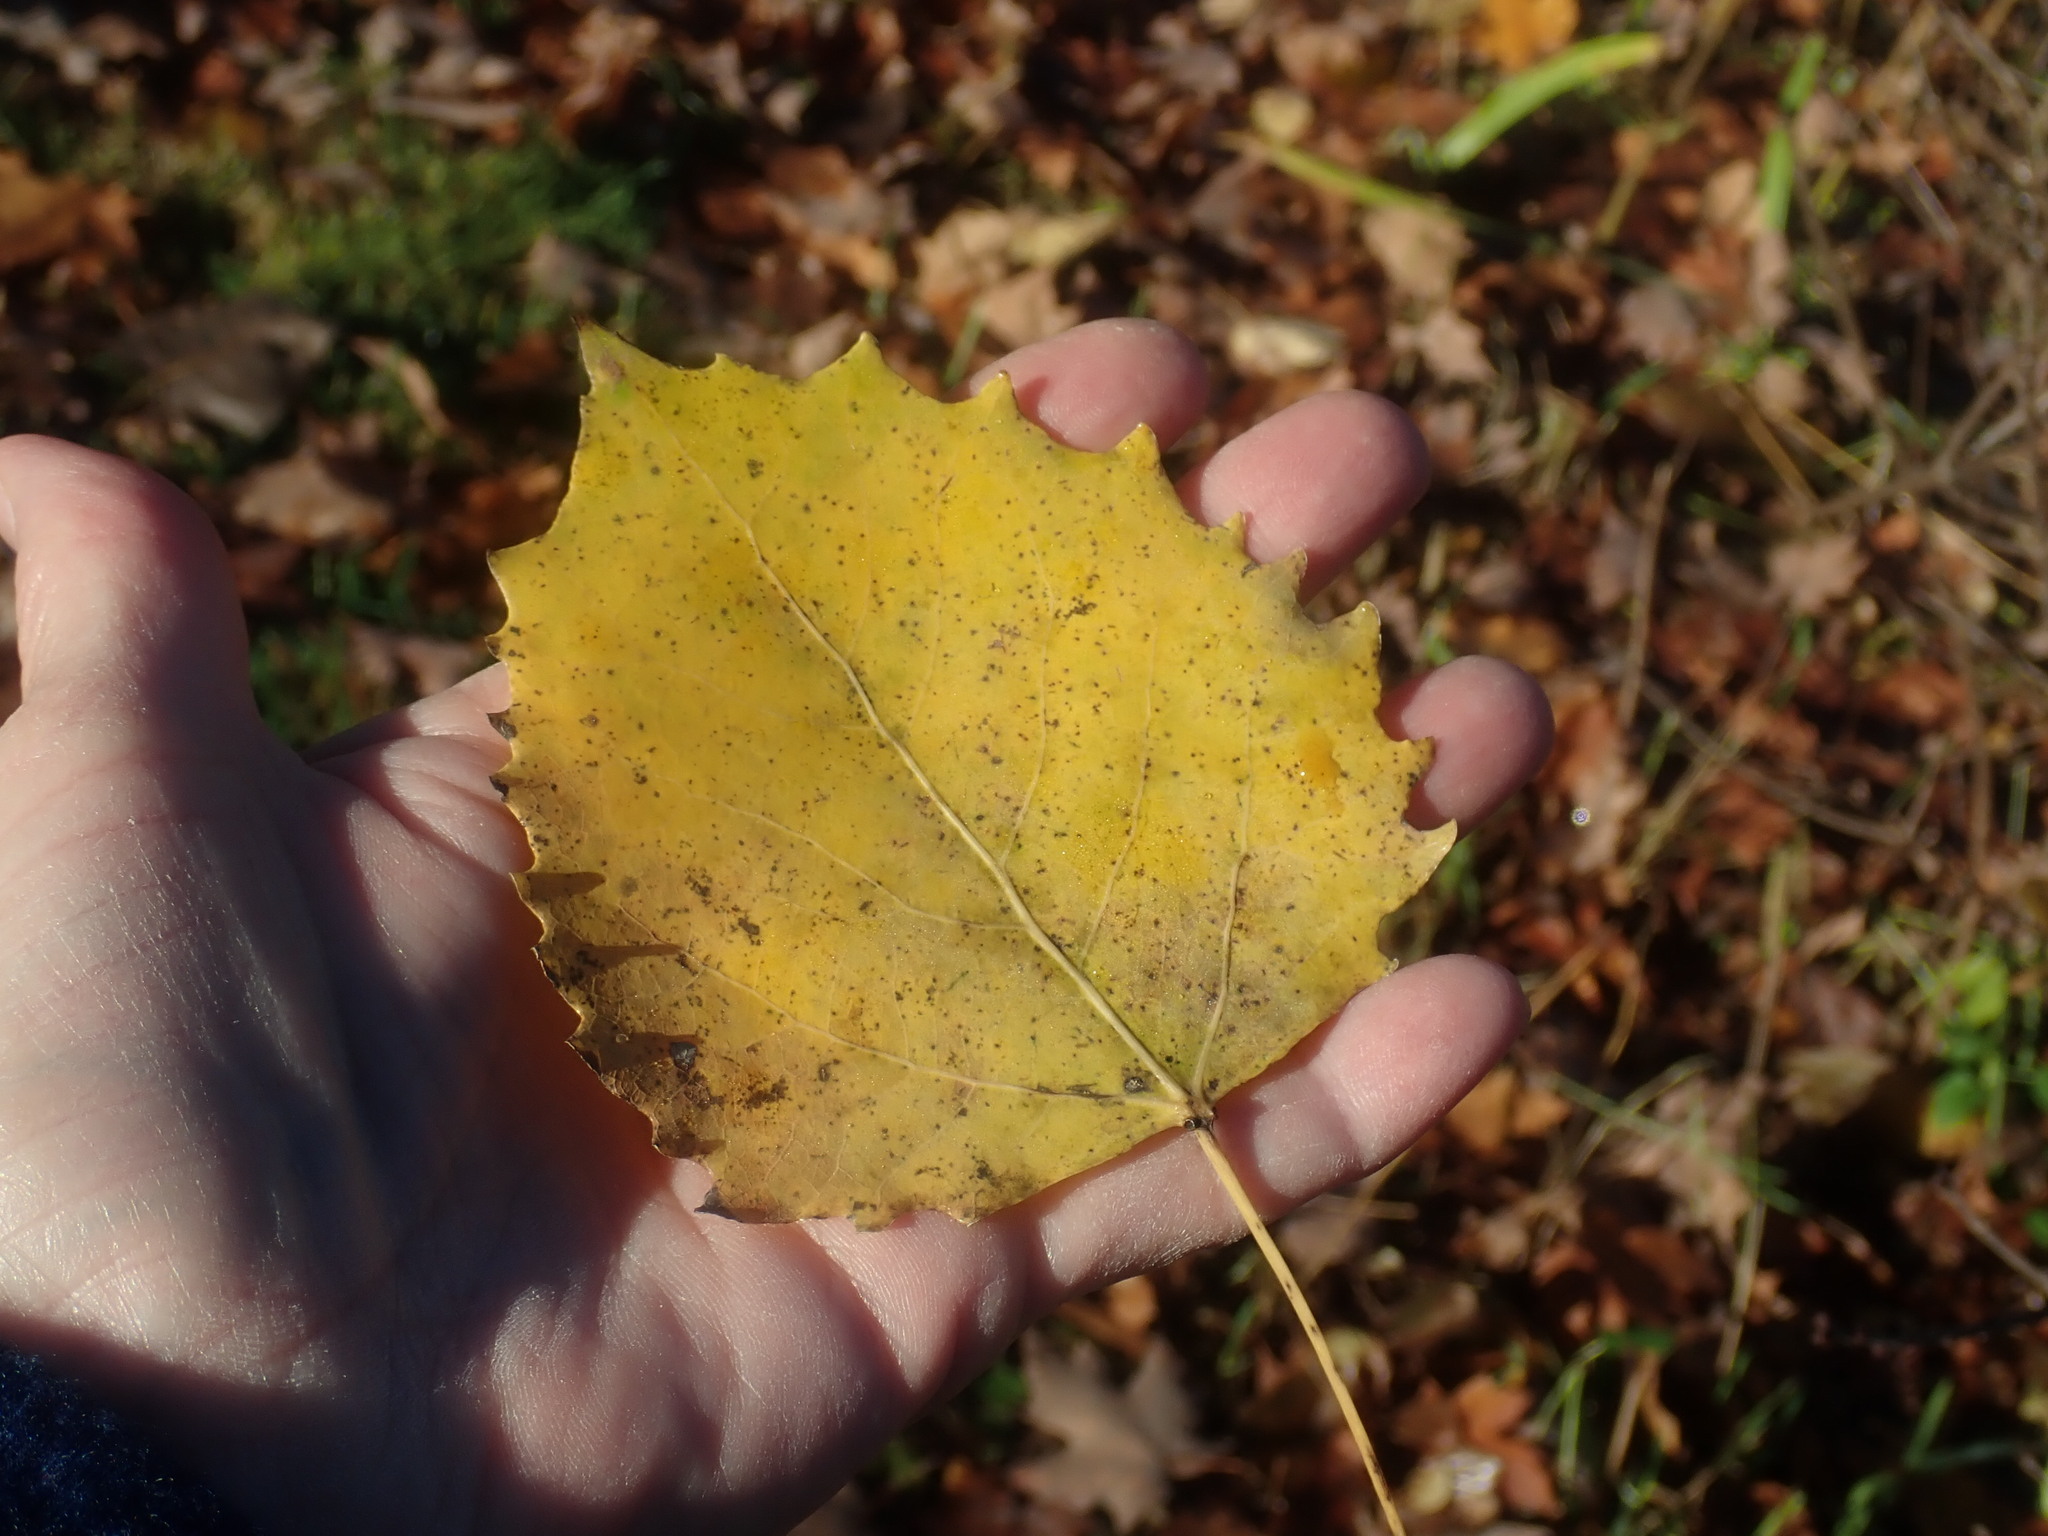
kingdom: Plantae
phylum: Tracheophyta
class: Magnoliopsida
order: Malpighiales
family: Salicaceae
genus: Populus
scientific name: Populus grandidentata
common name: Bigtooth aspen
